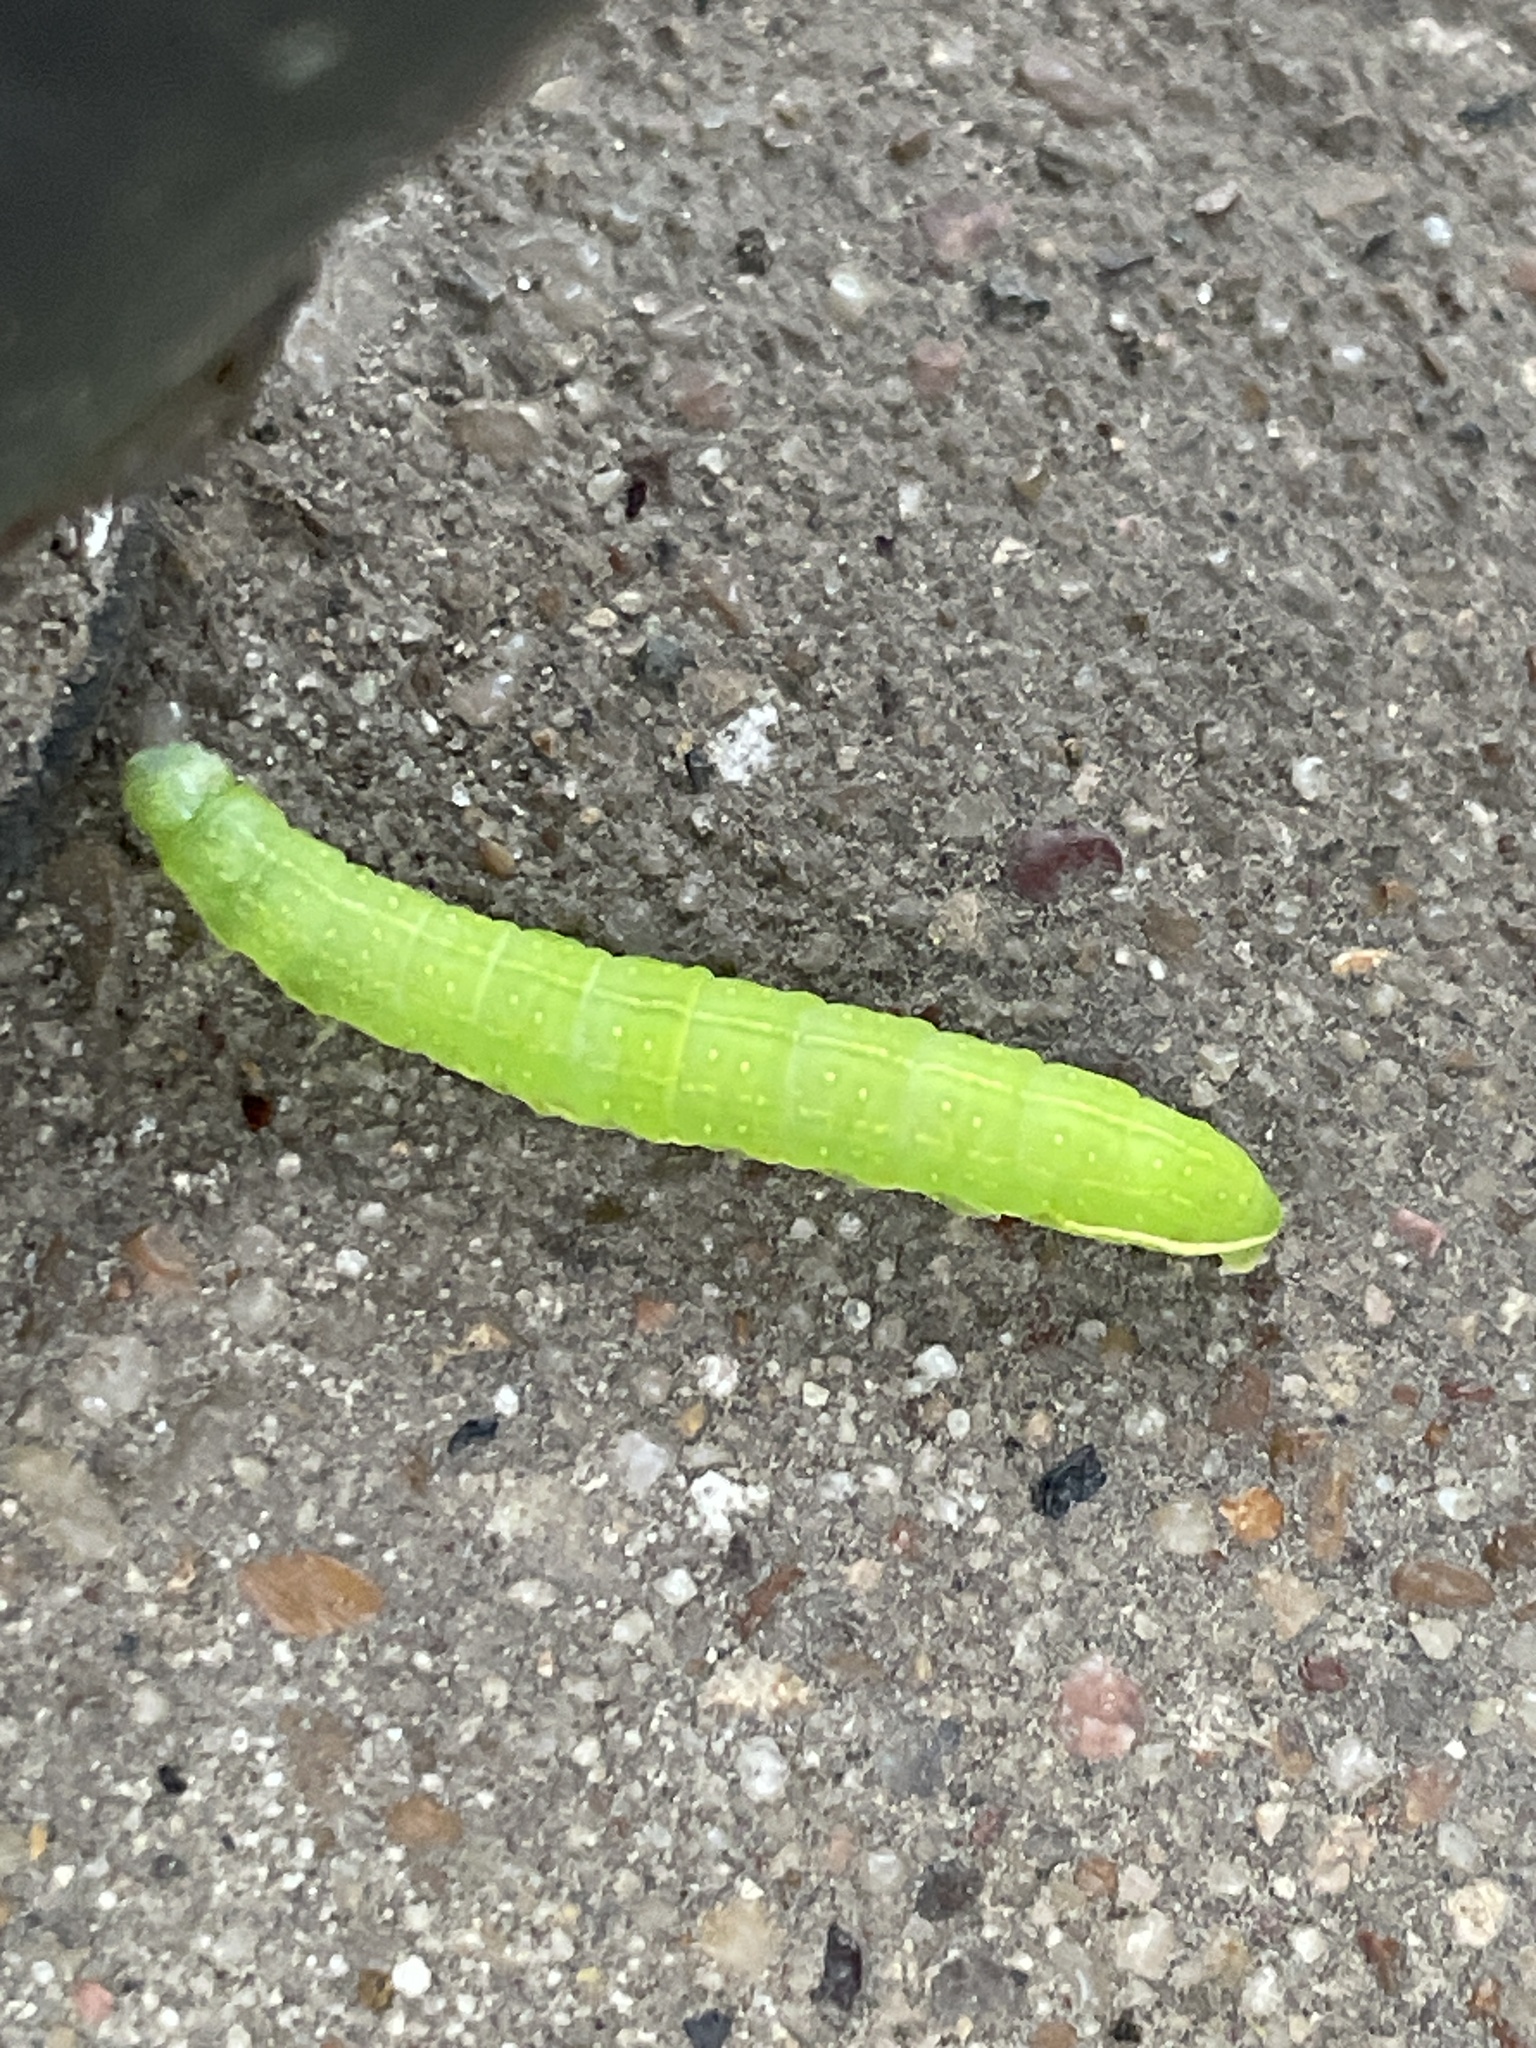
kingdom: Animalia
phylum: Arthropoda
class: Insecta
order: Lepidoptera
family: Noctuidae
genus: Psaphida
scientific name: Psaphida rolandi
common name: Roland's sallow
